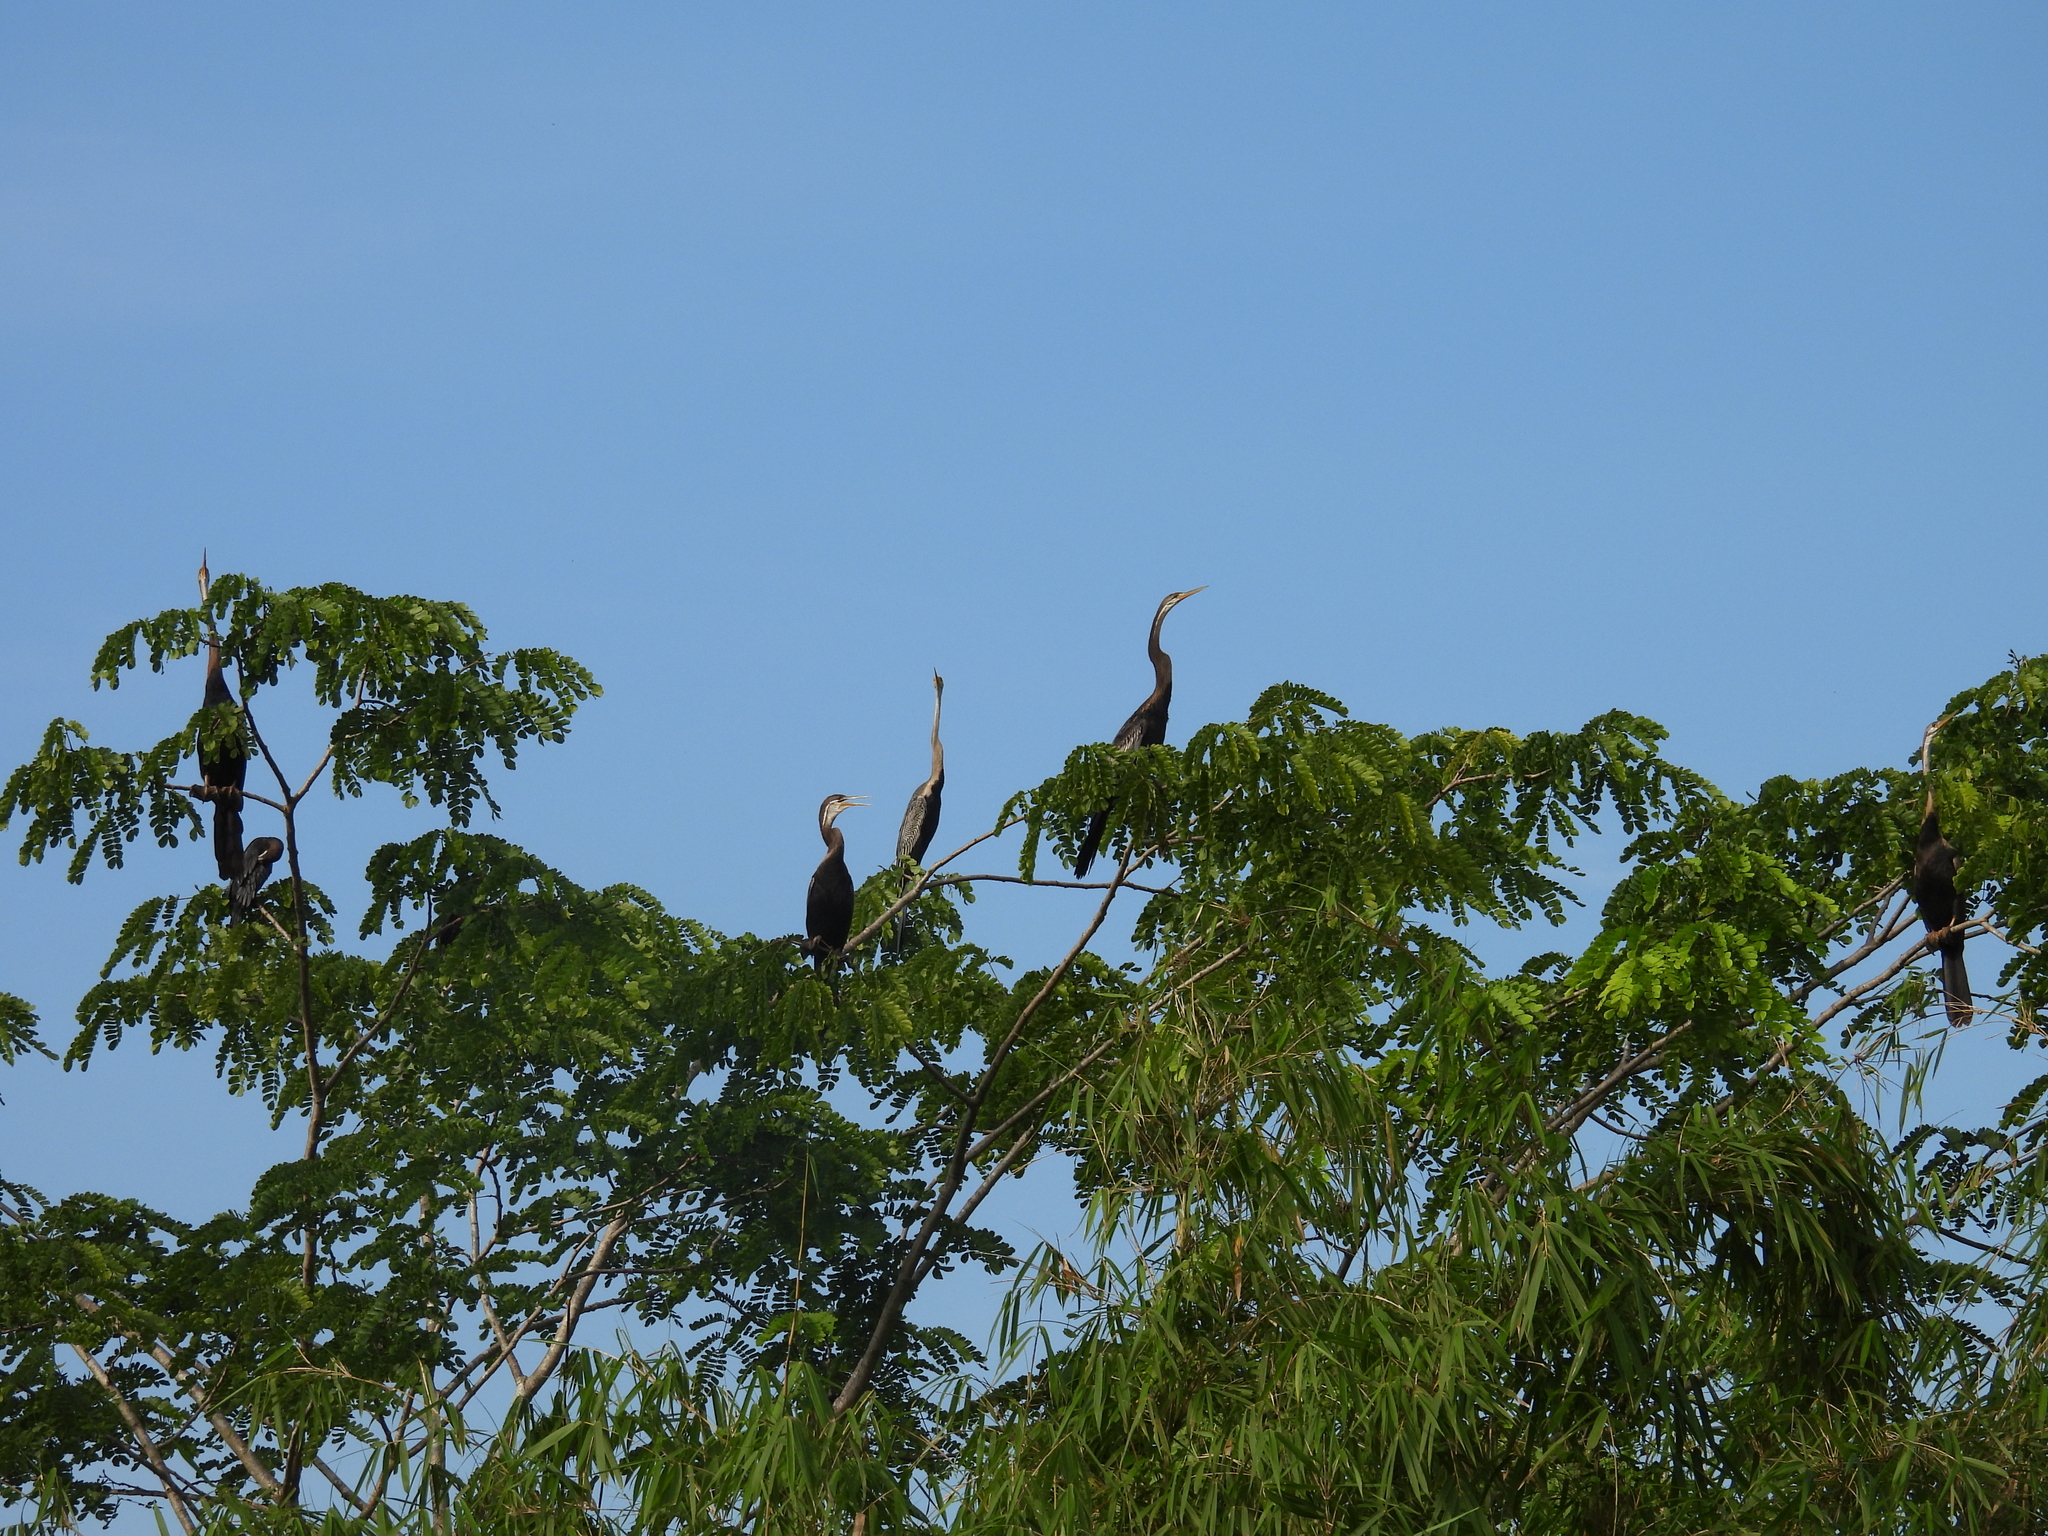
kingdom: Animalia
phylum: Chordata
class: Aves
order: Suliformes
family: Anhingidae
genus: Anhinga
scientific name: Anhinga melanogaster
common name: Oriental darter
